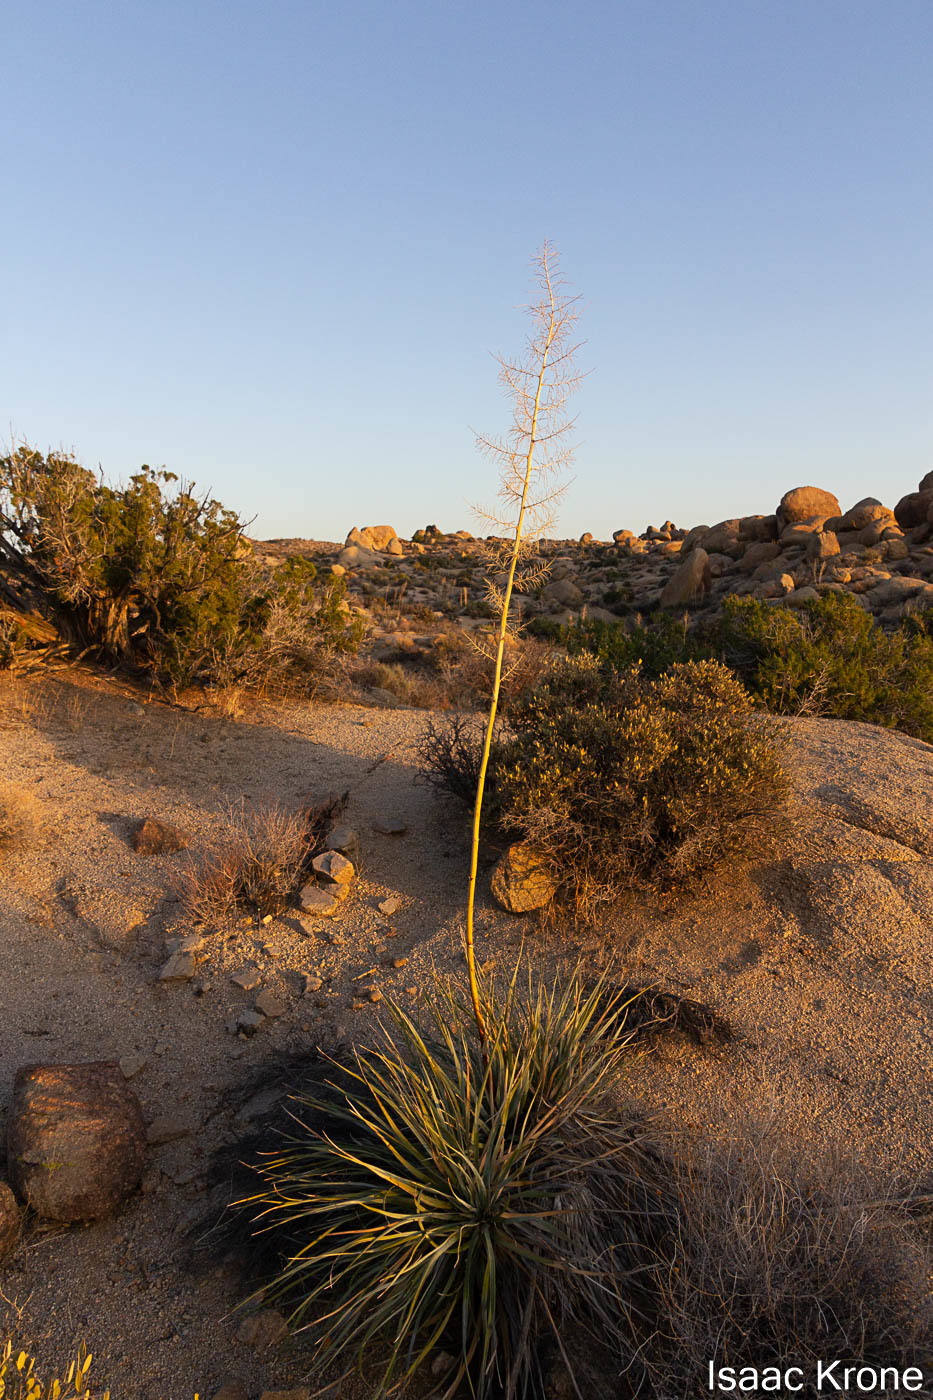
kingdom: Plantae
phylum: Tracheophyta
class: Liliopsida
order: Asparagales
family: Asparagaceae
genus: Nolina
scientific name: Nolina bigelovii
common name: Bigelow bear-grass
